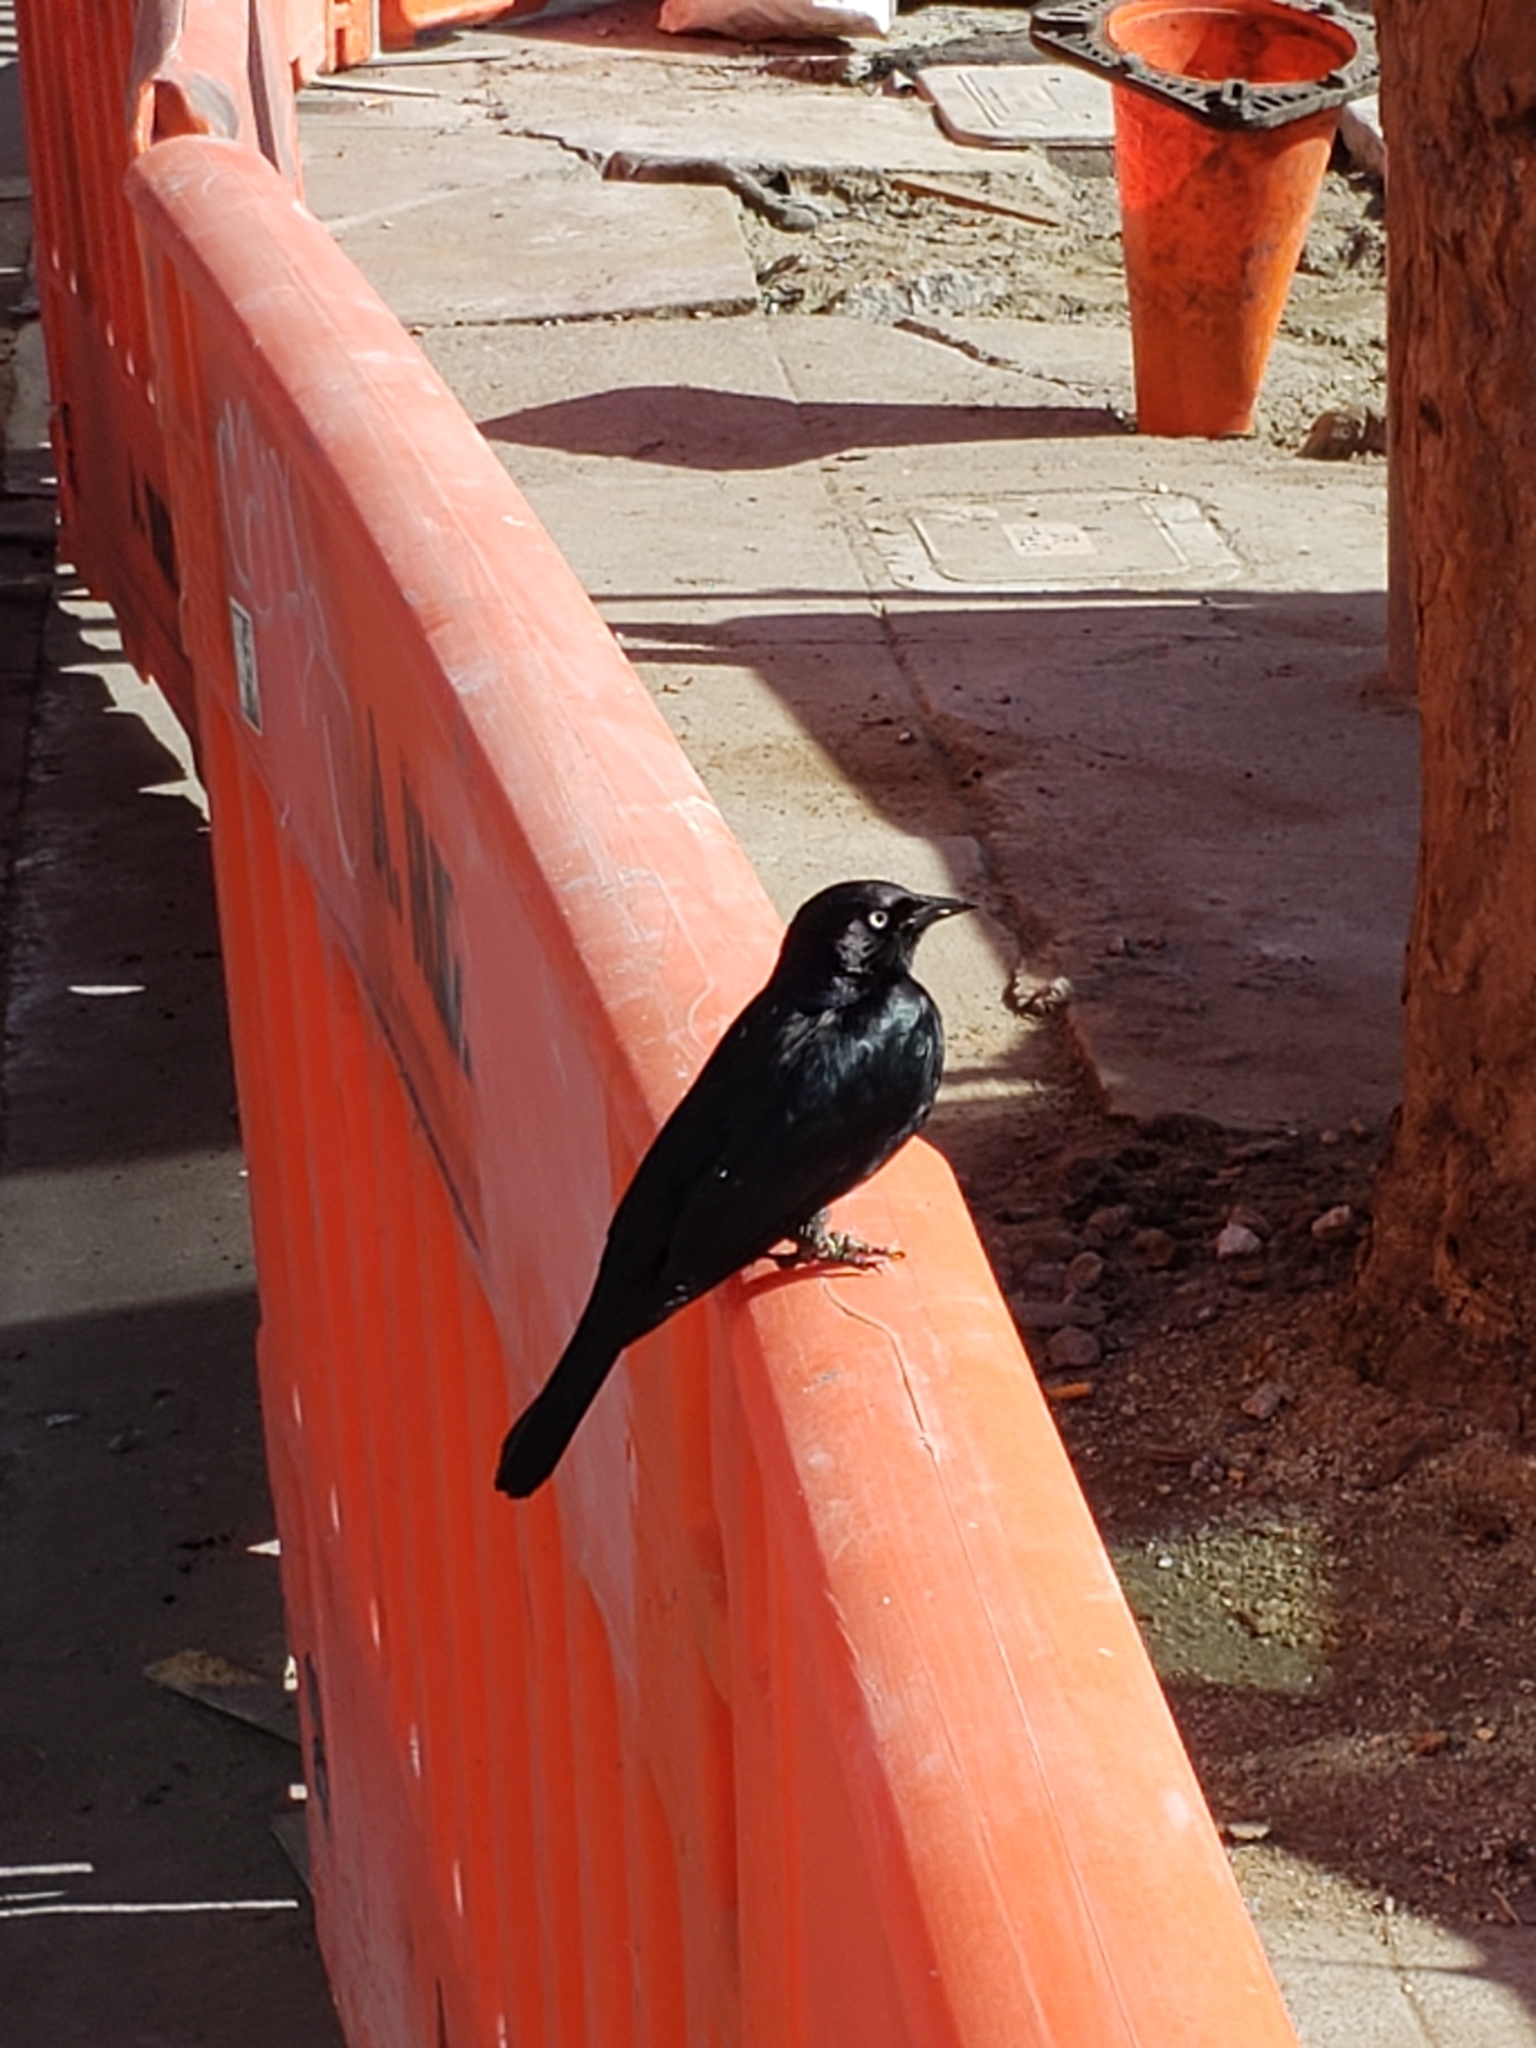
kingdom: Animalia
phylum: Chordata
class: Aves
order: Passeriformes
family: Icteridae
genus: Euphagus
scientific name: Euphagus cyanocephalus
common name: Brewer's blackbird
